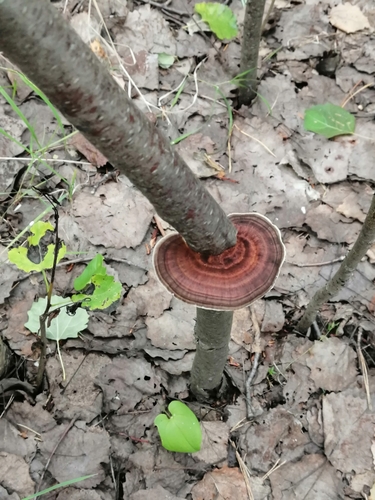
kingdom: Fungi
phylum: Basidiomycota
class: Agaricomycetes
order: Polyporales
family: Polyporaceae
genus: Daedaleopsis
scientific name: Daedaleopsis septentrionalis
